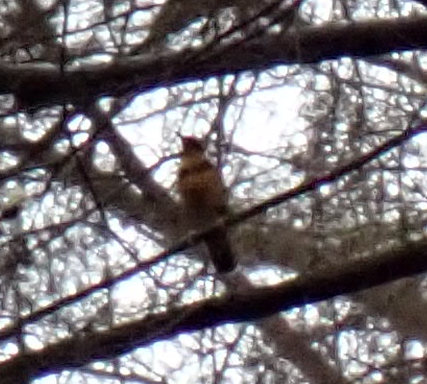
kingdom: Animalia
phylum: Chordata
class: Aves
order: Passeriformes
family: Turdidae
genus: Ixoreus
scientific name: Ixoreus naevius
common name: Varied thrush
